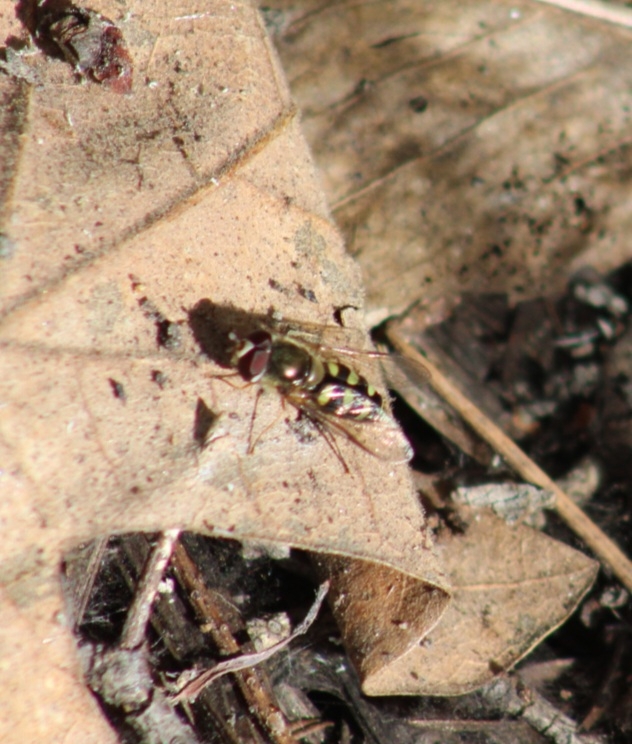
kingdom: Animalia
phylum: Arthropoda
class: Insecta
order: Diptera
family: Syrphidae
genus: Lapposyrphus
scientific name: Lapposyrphus lapponicus
